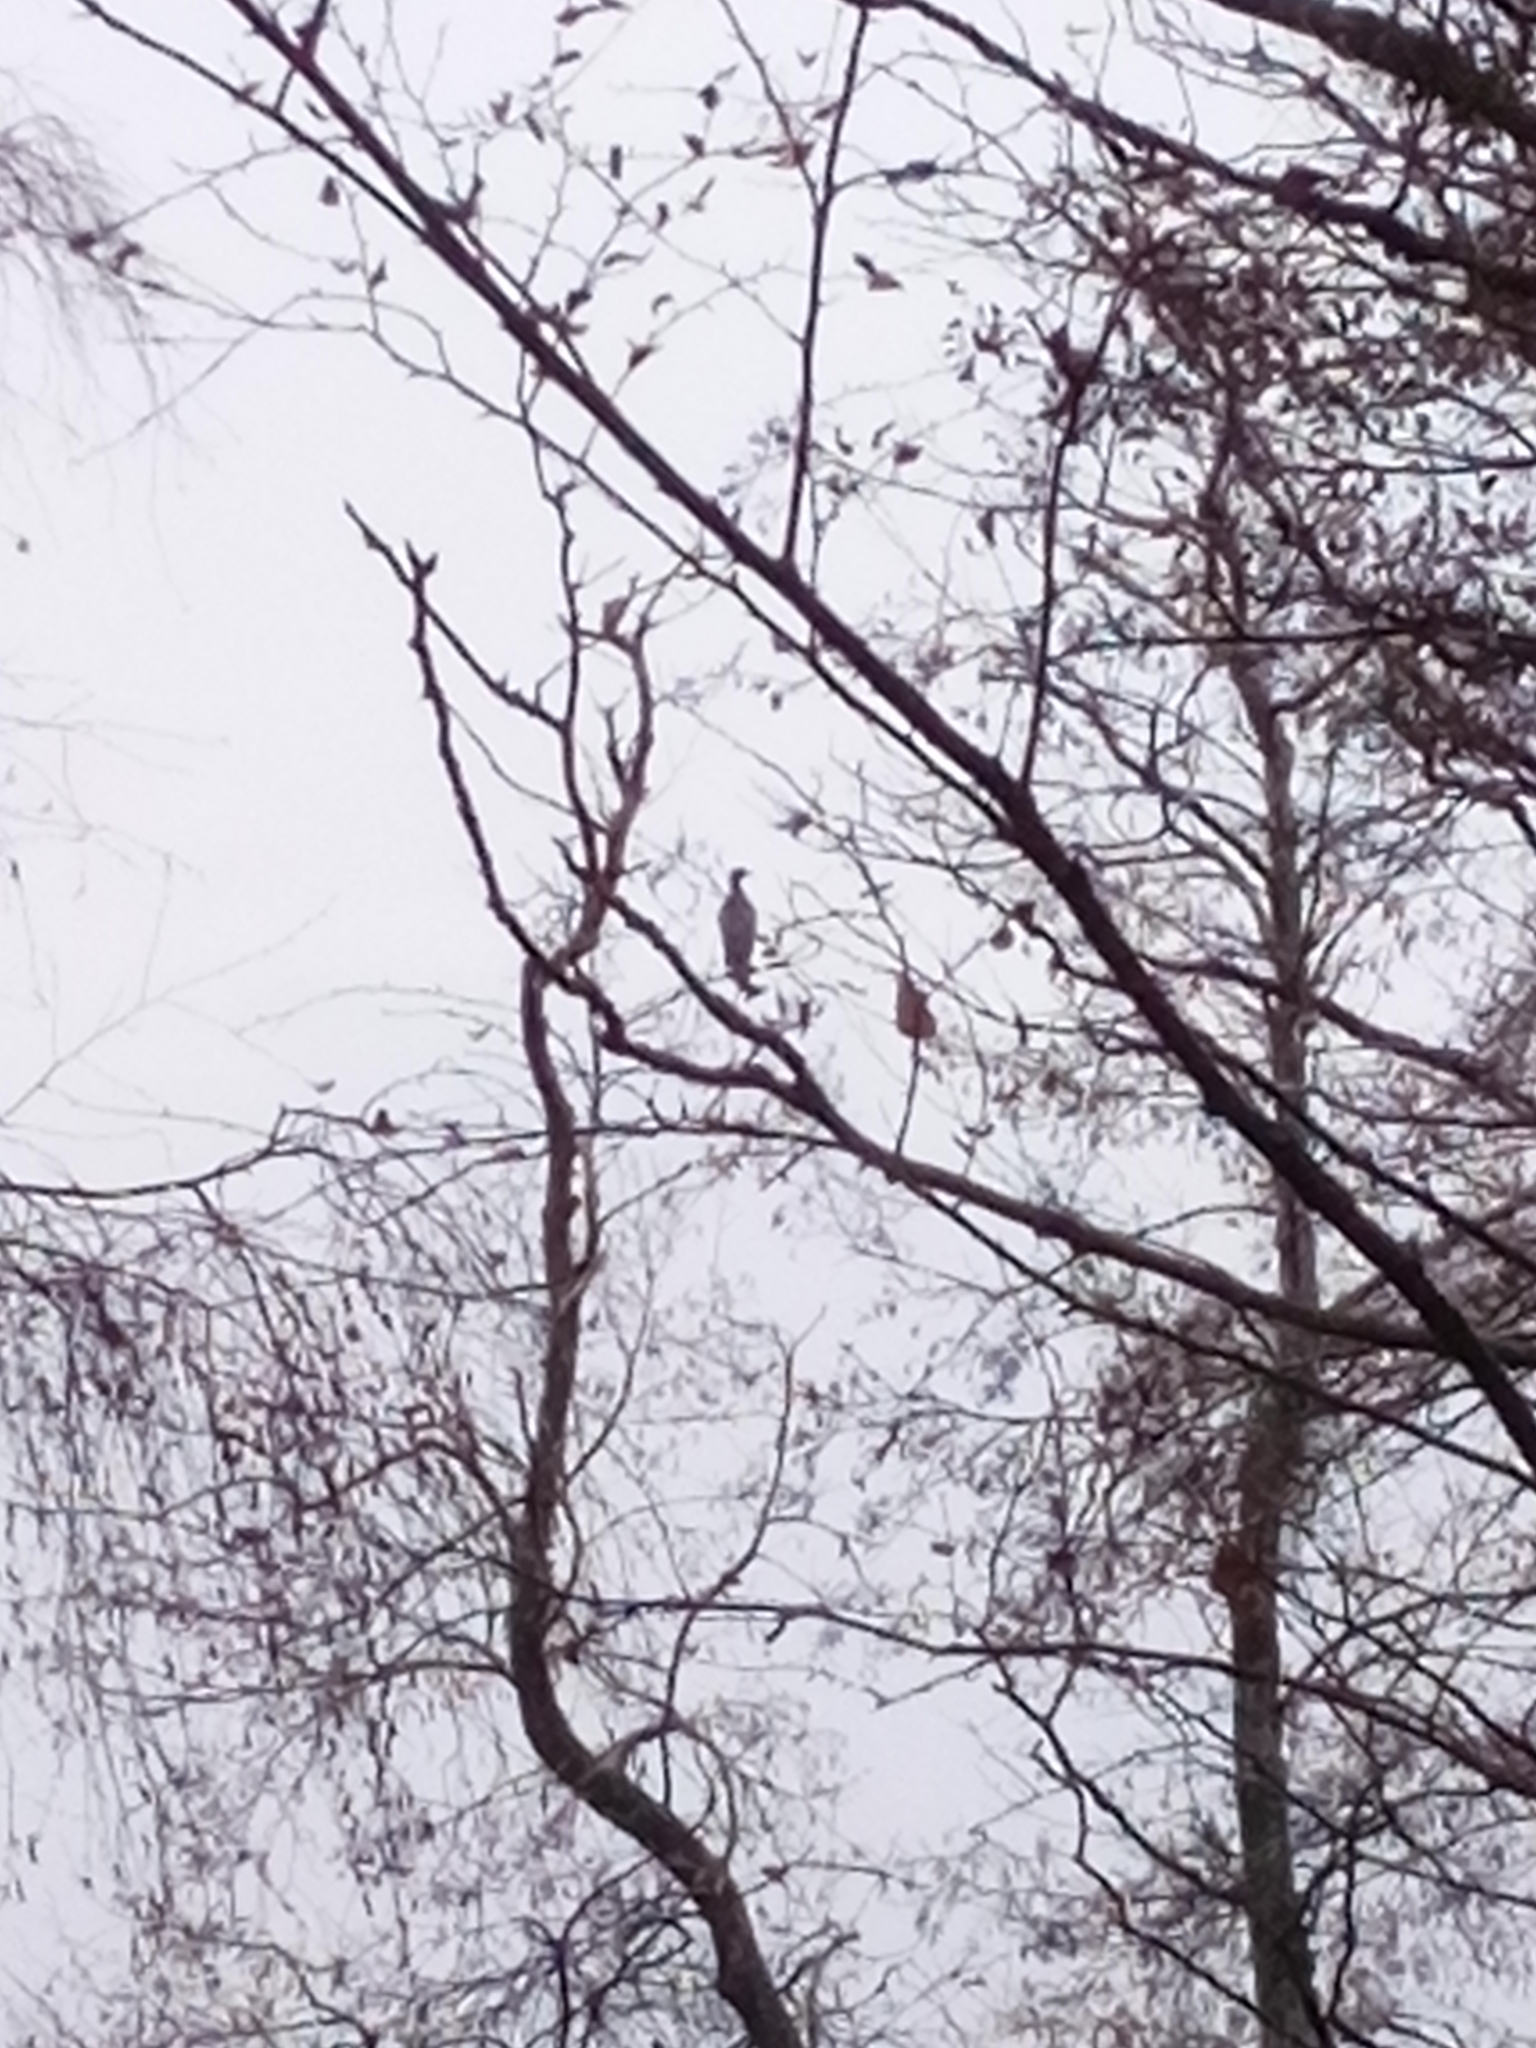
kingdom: Animalia
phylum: Chordata
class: Aves
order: Suliformes
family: Phalacrocoracidae
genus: Phalacrocorax
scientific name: Phalacrocorax carbo
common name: Great cormorant
